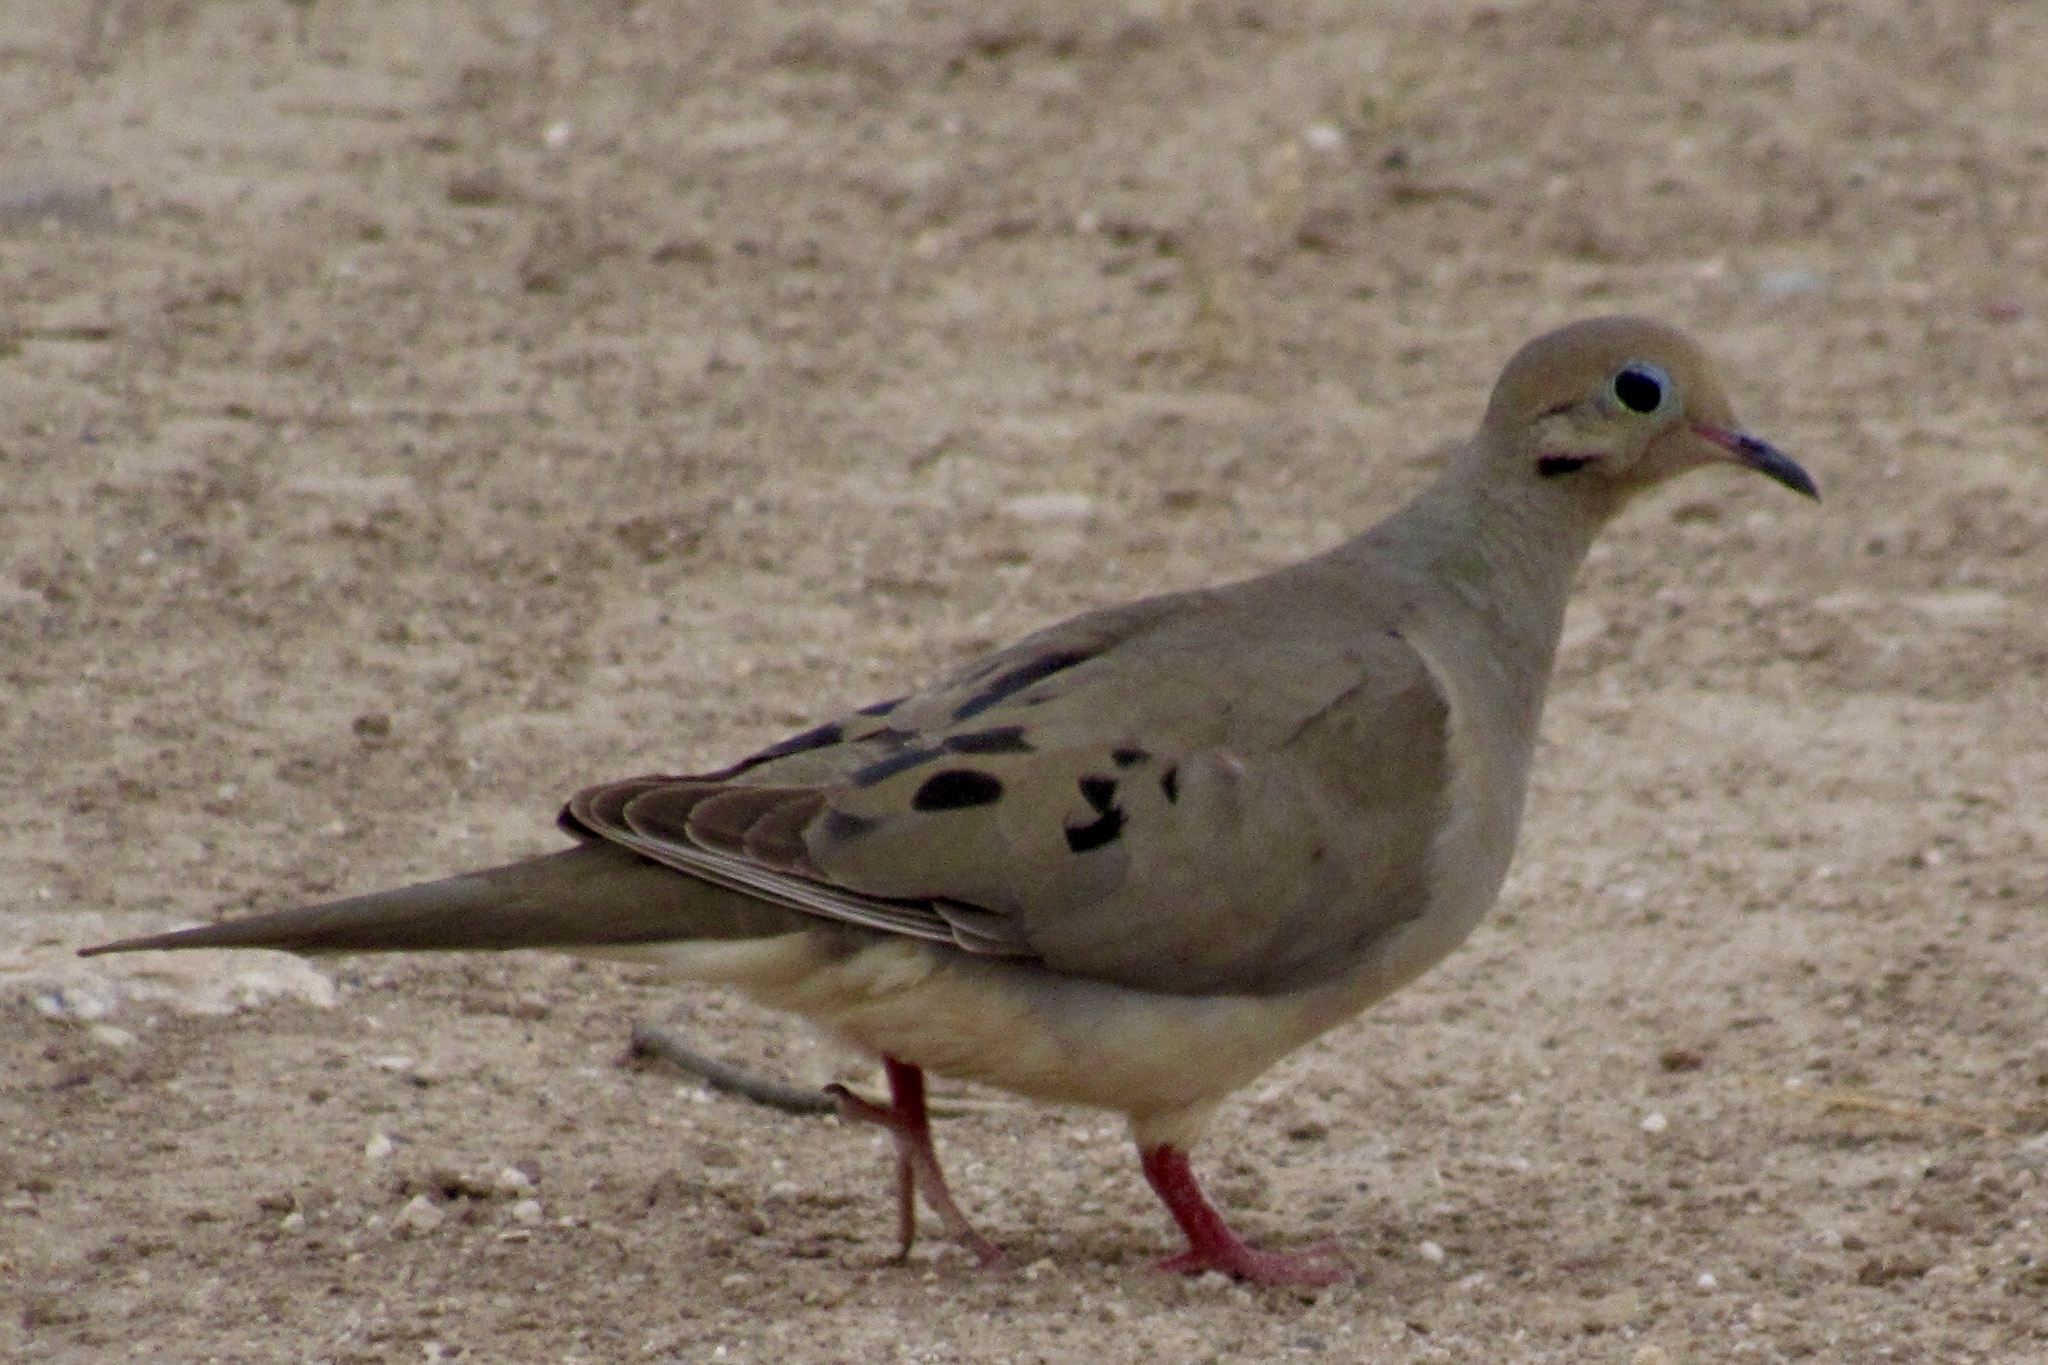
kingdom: Animalia
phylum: Chordata
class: Aves
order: Columbiformes
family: Columbidae
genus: Zenaida
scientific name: Zenaida macroura
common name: Mourning dove
